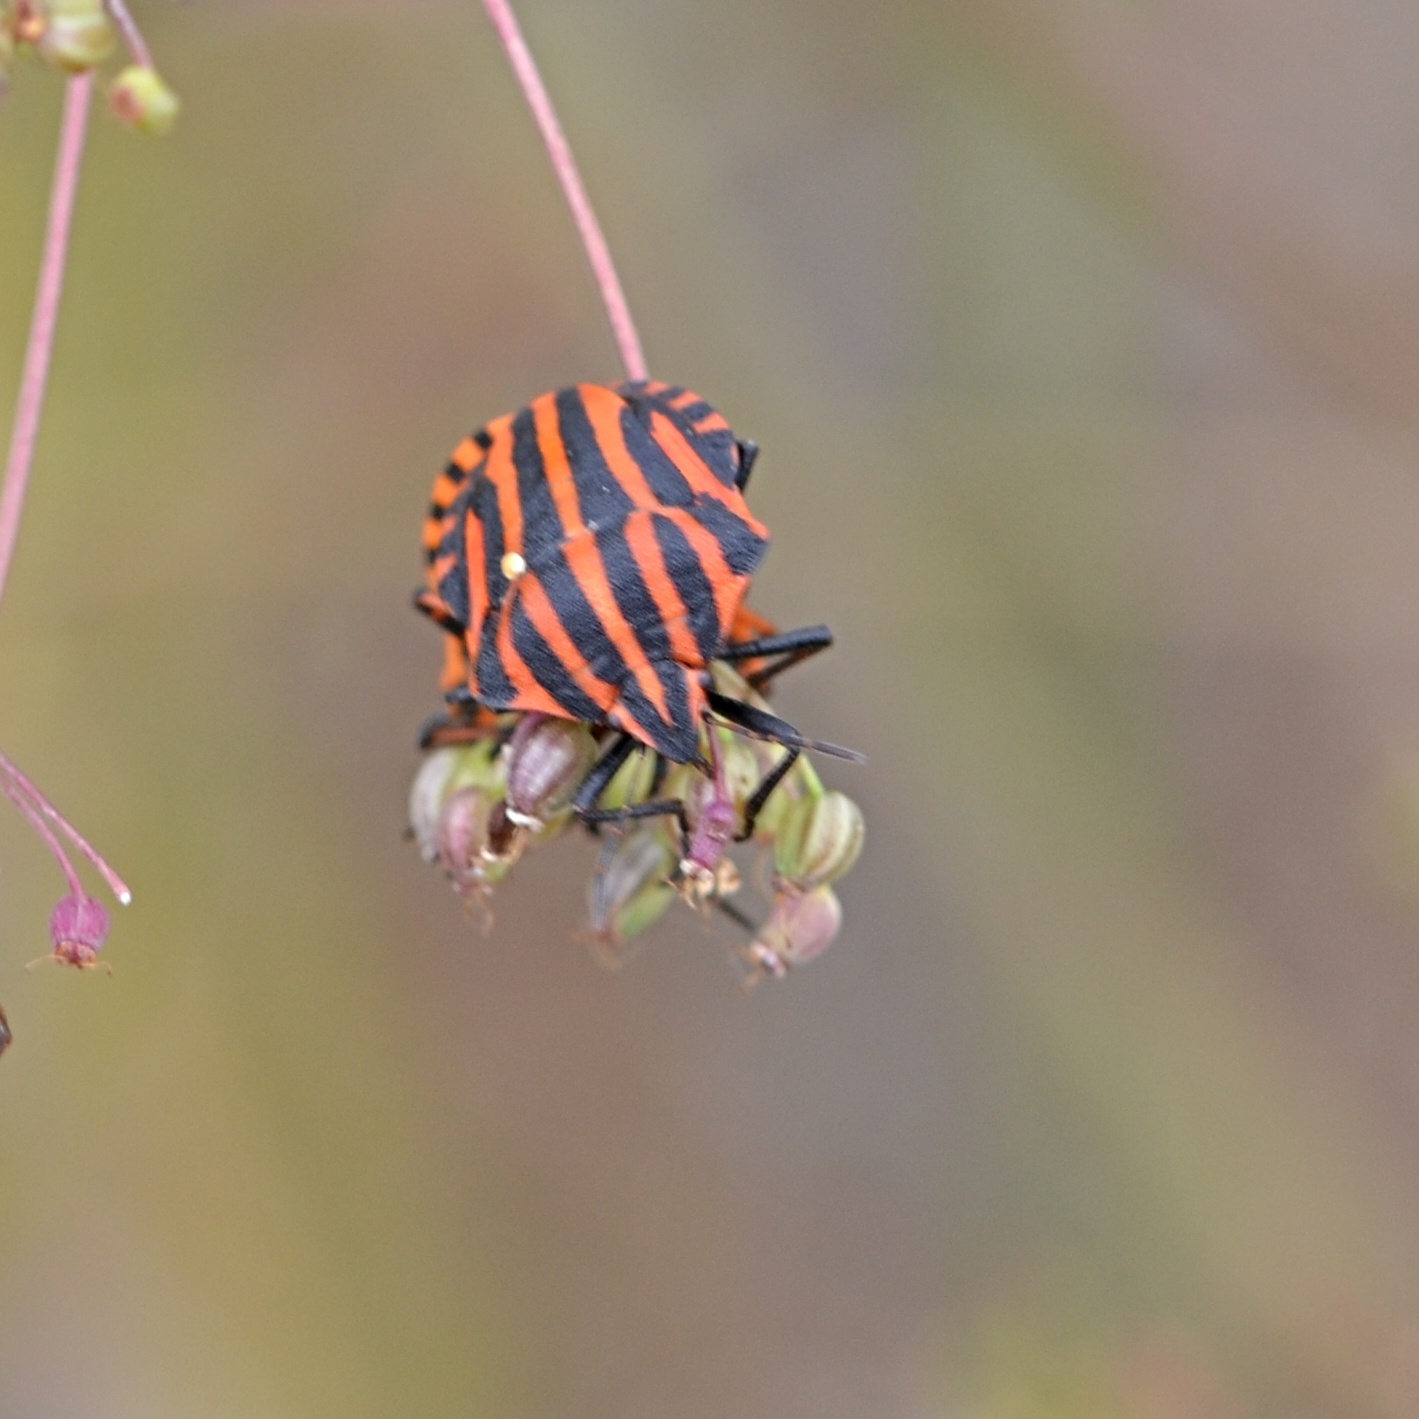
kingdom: Animalia
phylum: Arthropoda
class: Insecta
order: Hemiptera
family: Pentatomidae
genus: Graphosoma
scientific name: Graphosoma italicum
